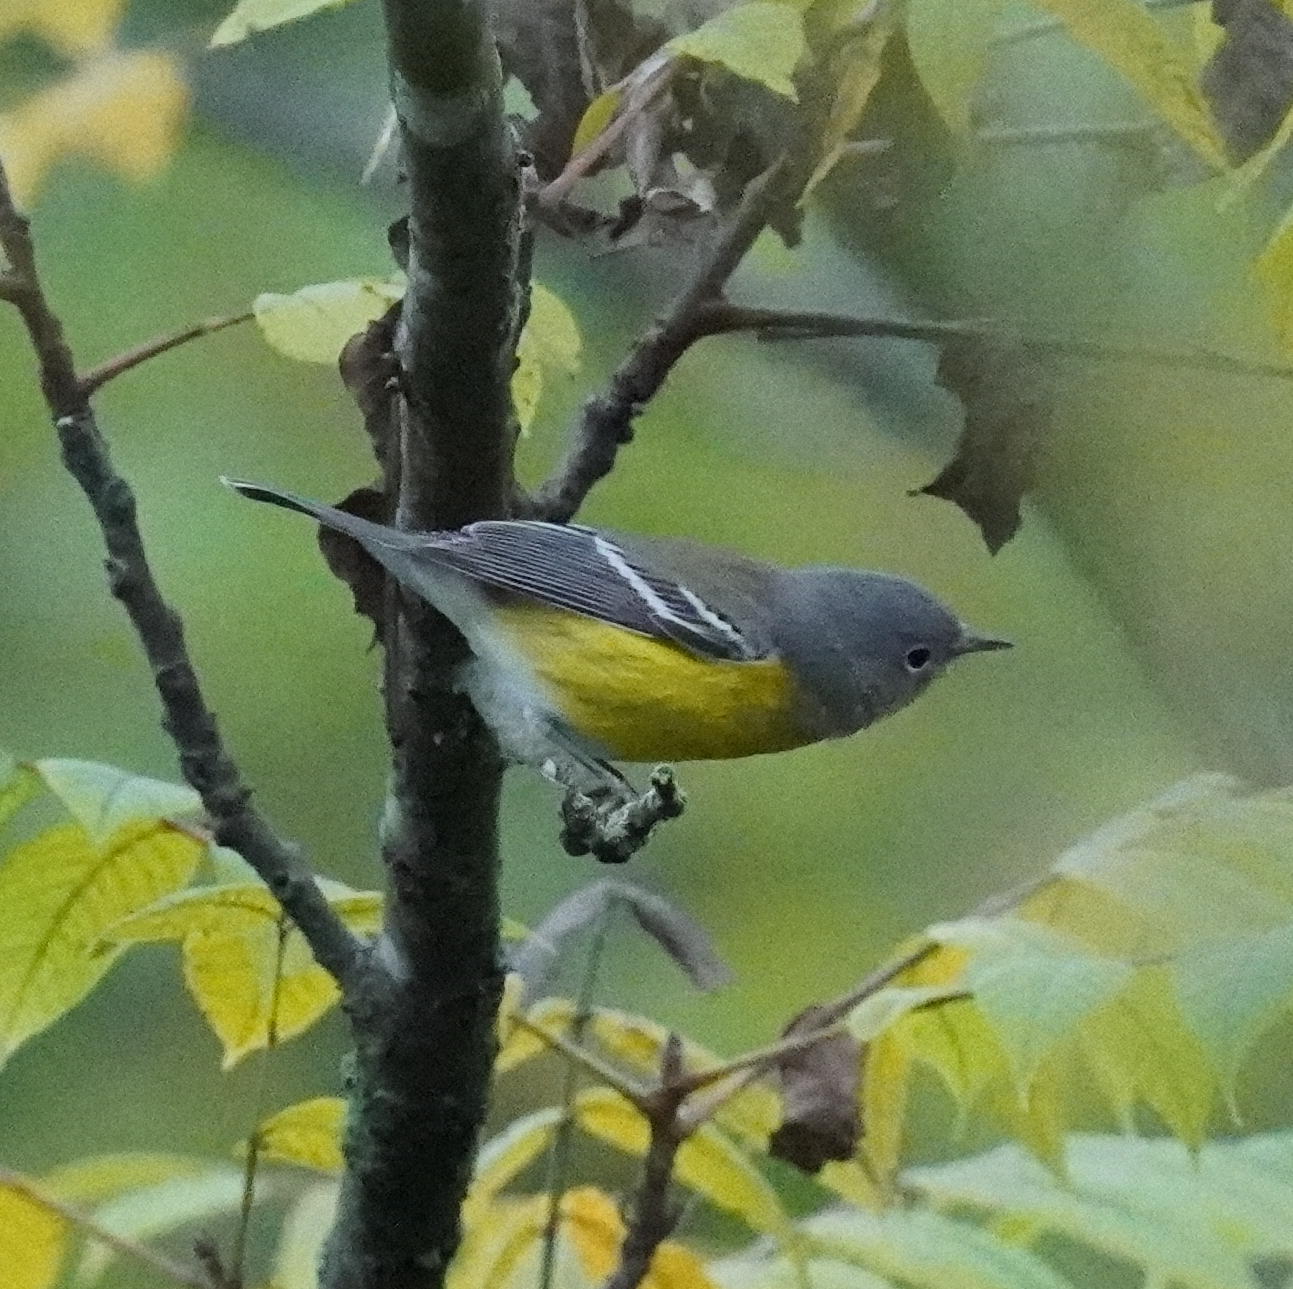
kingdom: Animalia
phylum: Chordata
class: Aves
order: Passeriformes
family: Parulidae
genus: Setophaga
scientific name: Setophaga magnolia
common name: Magnolia warbler
